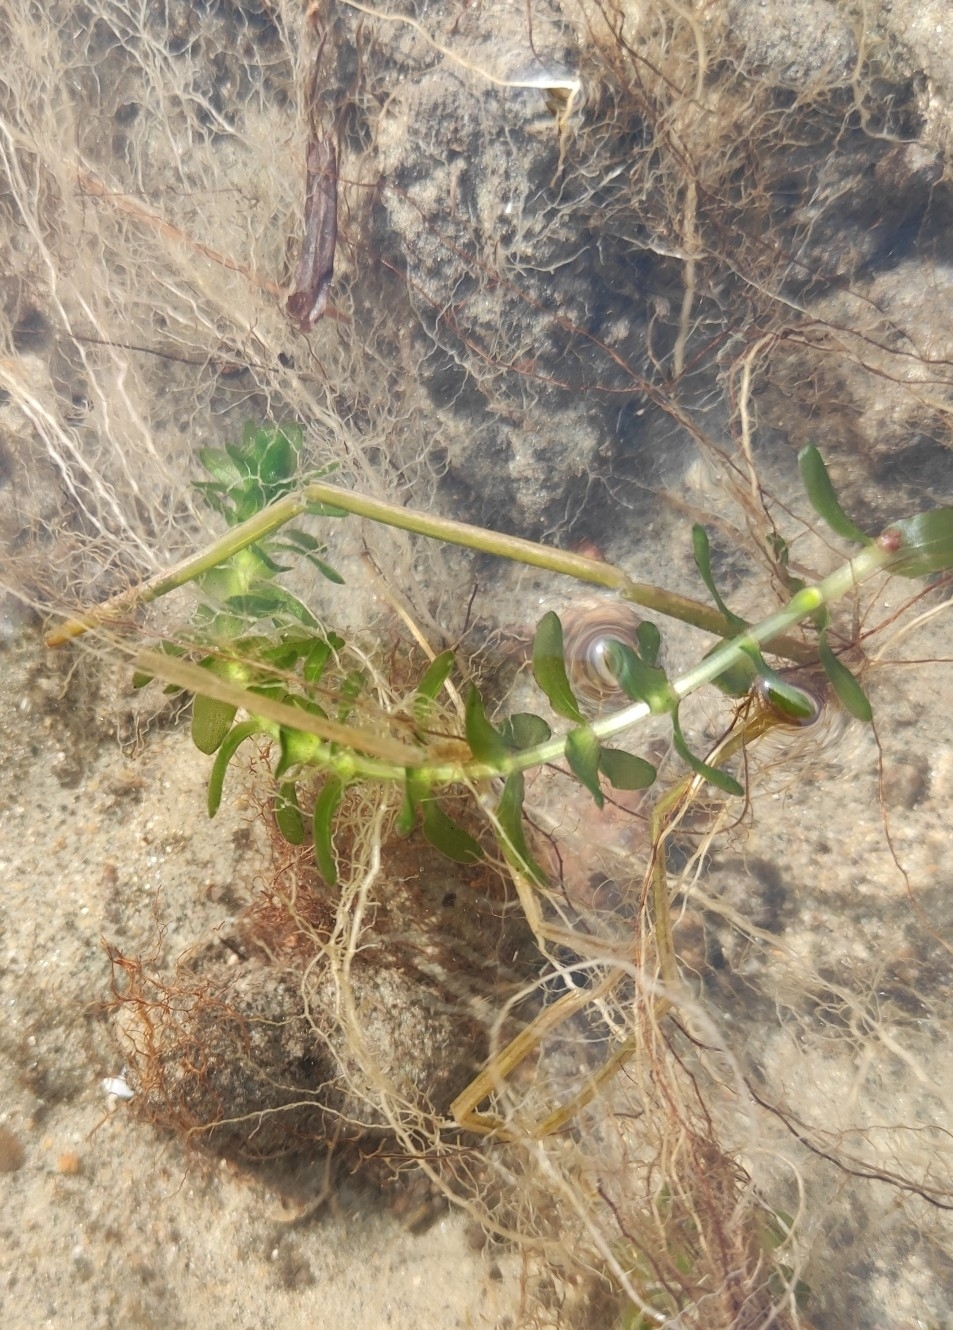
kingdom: Plantae
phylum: Tracheophyta
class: Liliopsida
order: Alismatales
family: Hydrocharitaceae
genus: Elodea
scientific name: Elodea canadensis
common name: Canadian waterweed
